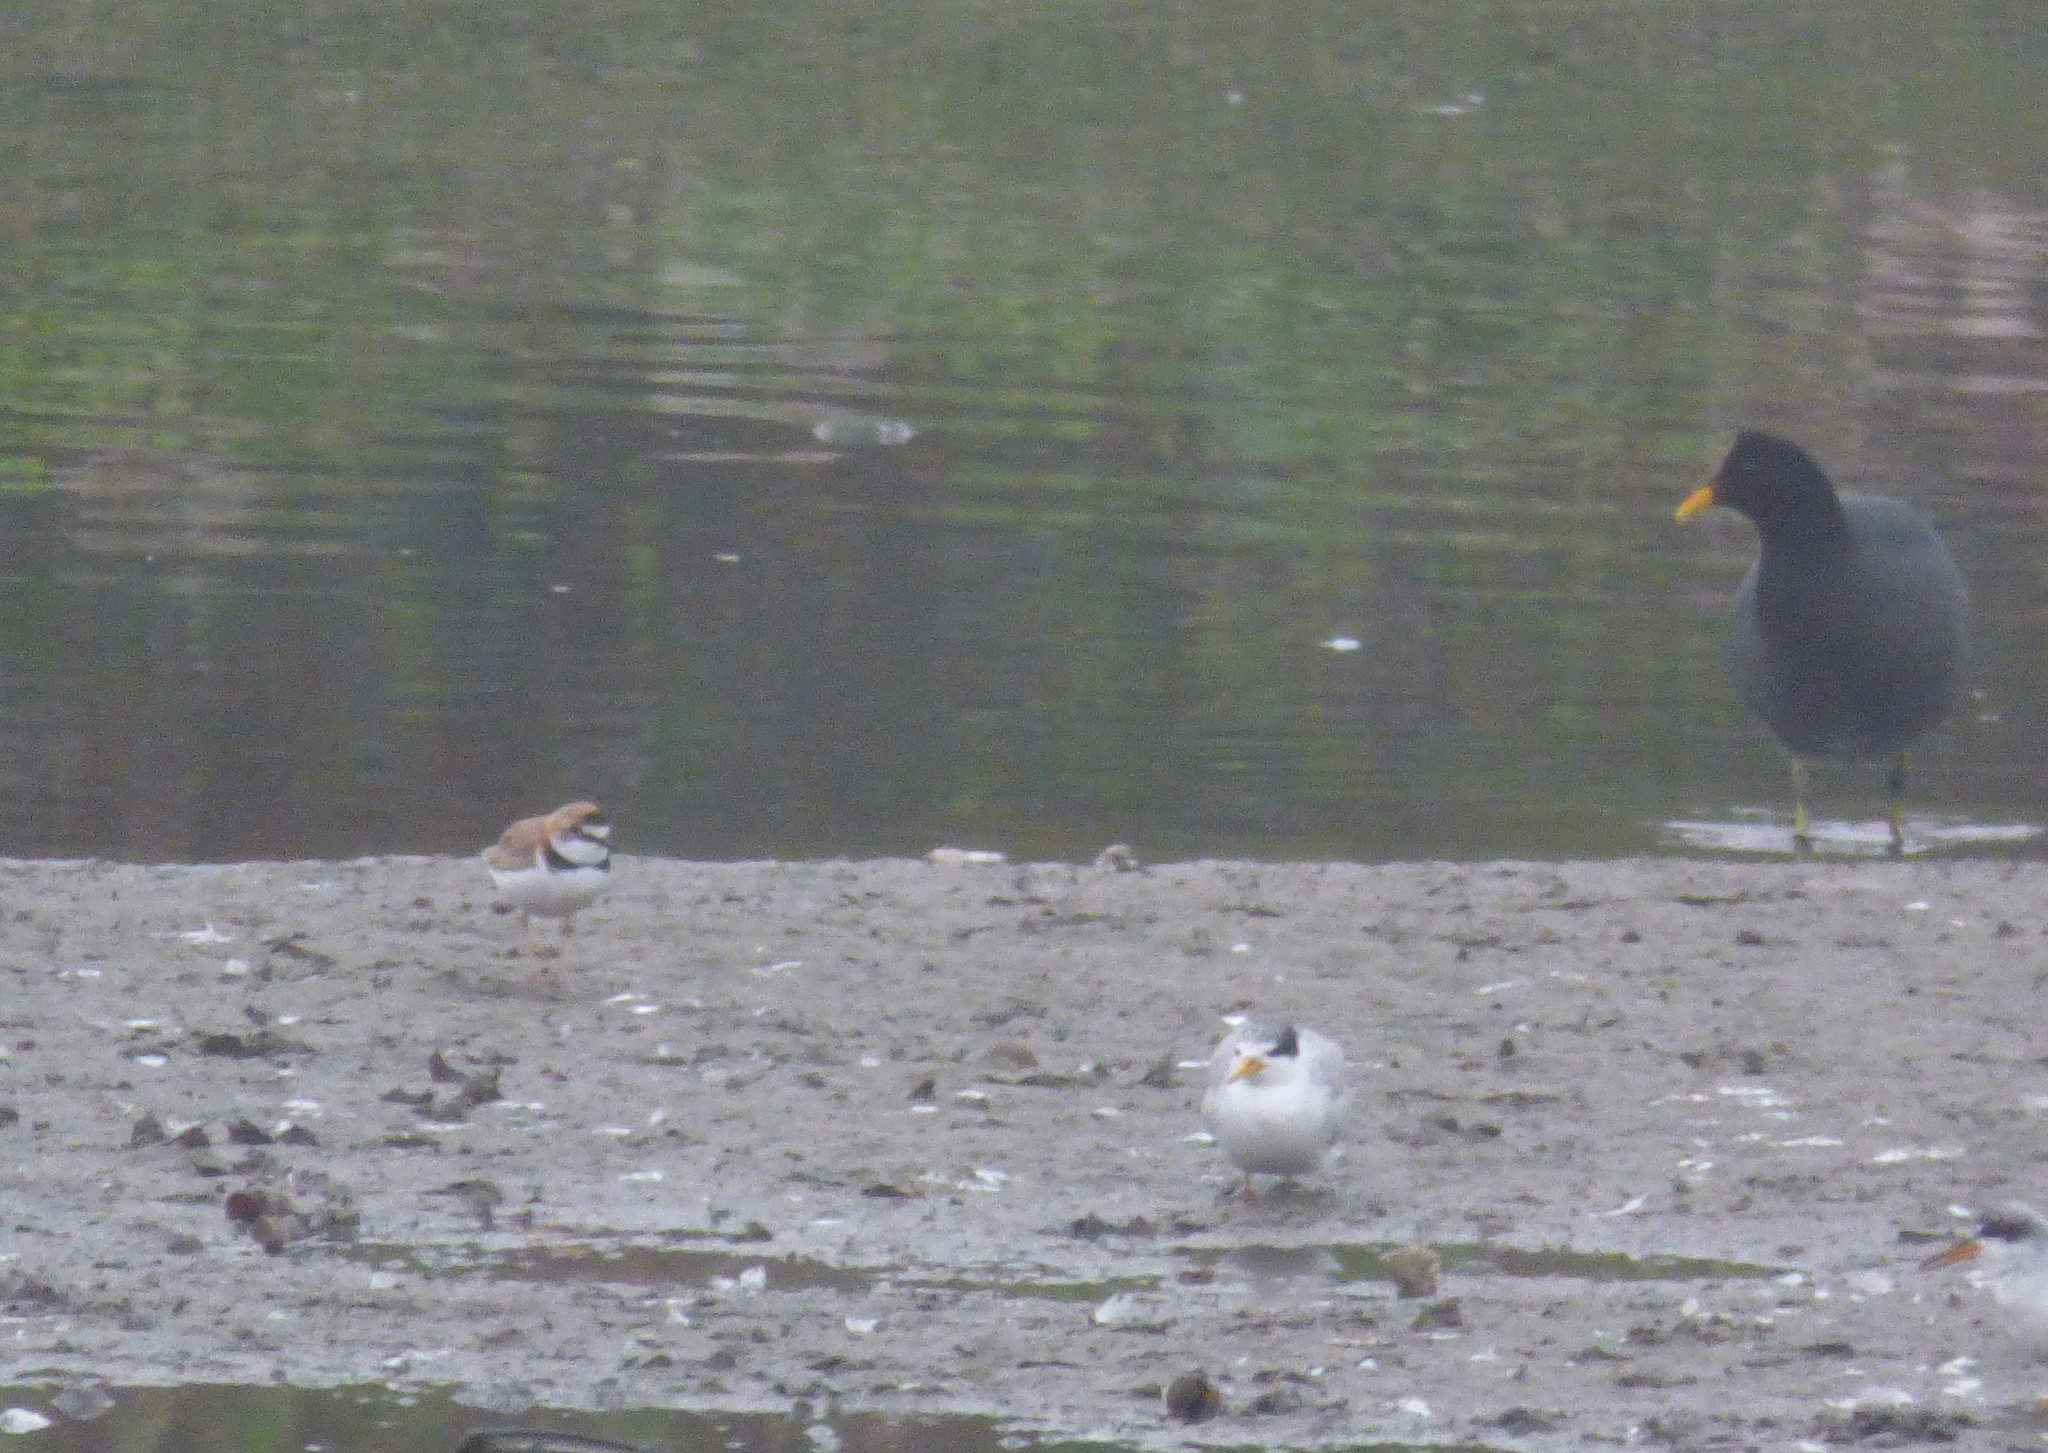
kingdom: Animalia
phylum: Chordata
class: Aves
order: Charadriiformes
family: Charadriidae
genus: Anarhynchus
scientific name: Anarhynchus
